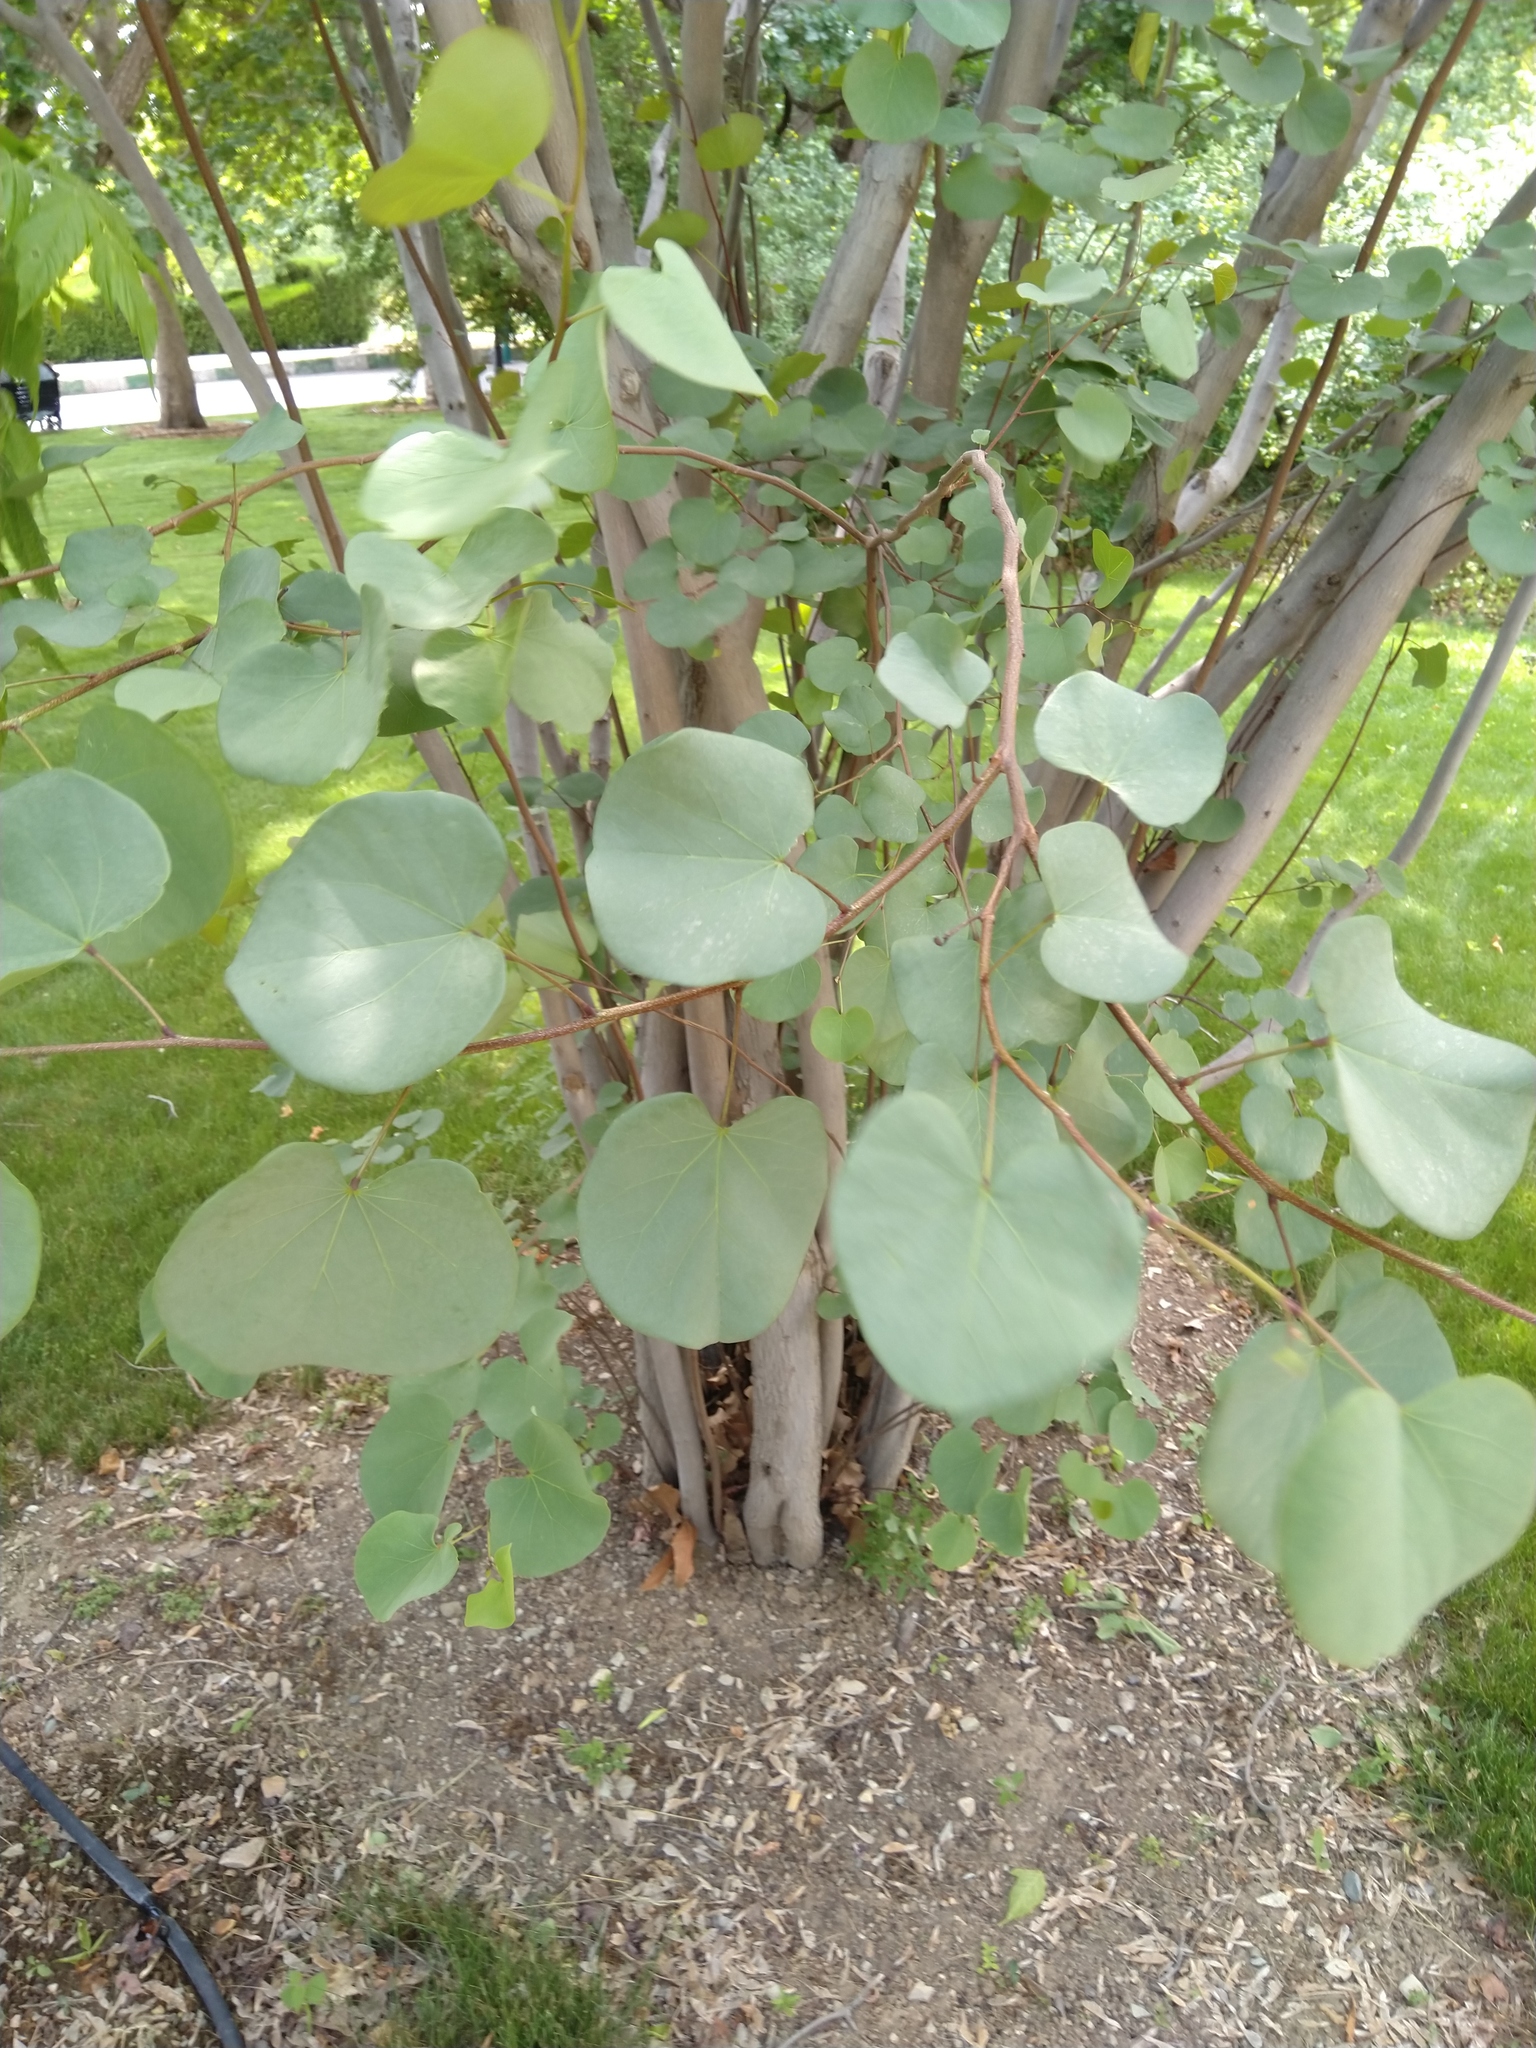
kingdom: Plantae
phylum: Tracheophyta
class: Magnoliopsida
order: Fabales
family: Fabaceae
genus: Cercis
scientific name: Cercis siliquastrum
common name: Judas tree
